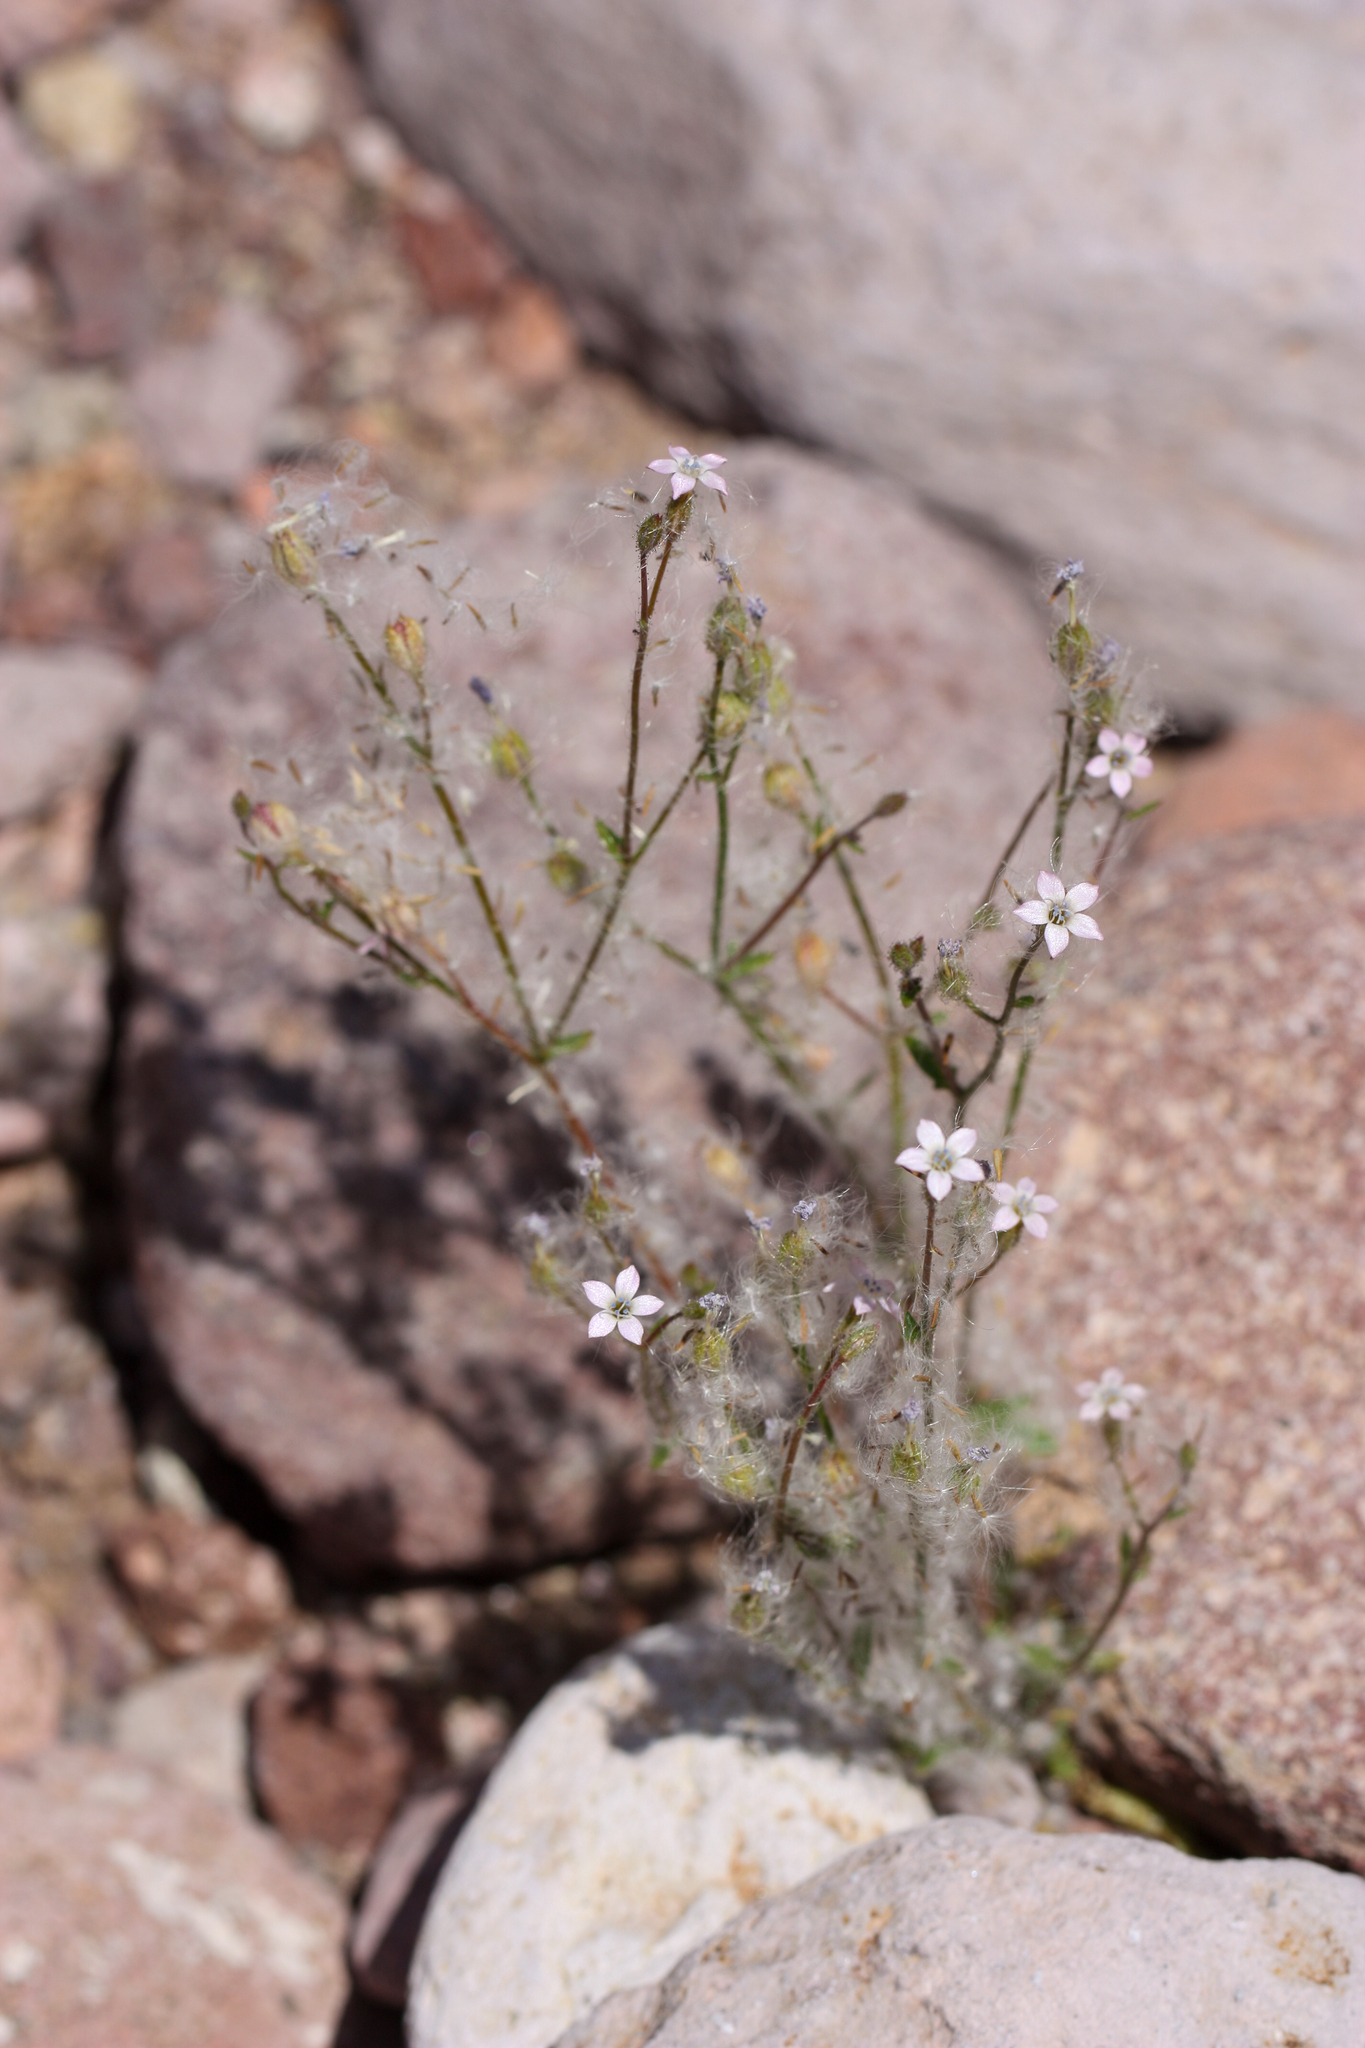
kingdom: Plantae
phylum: Tracheophyta
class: Magnoliopsida
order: Ericales
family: Polemoniaceae
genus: Gilia
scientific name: Gilia stellata
